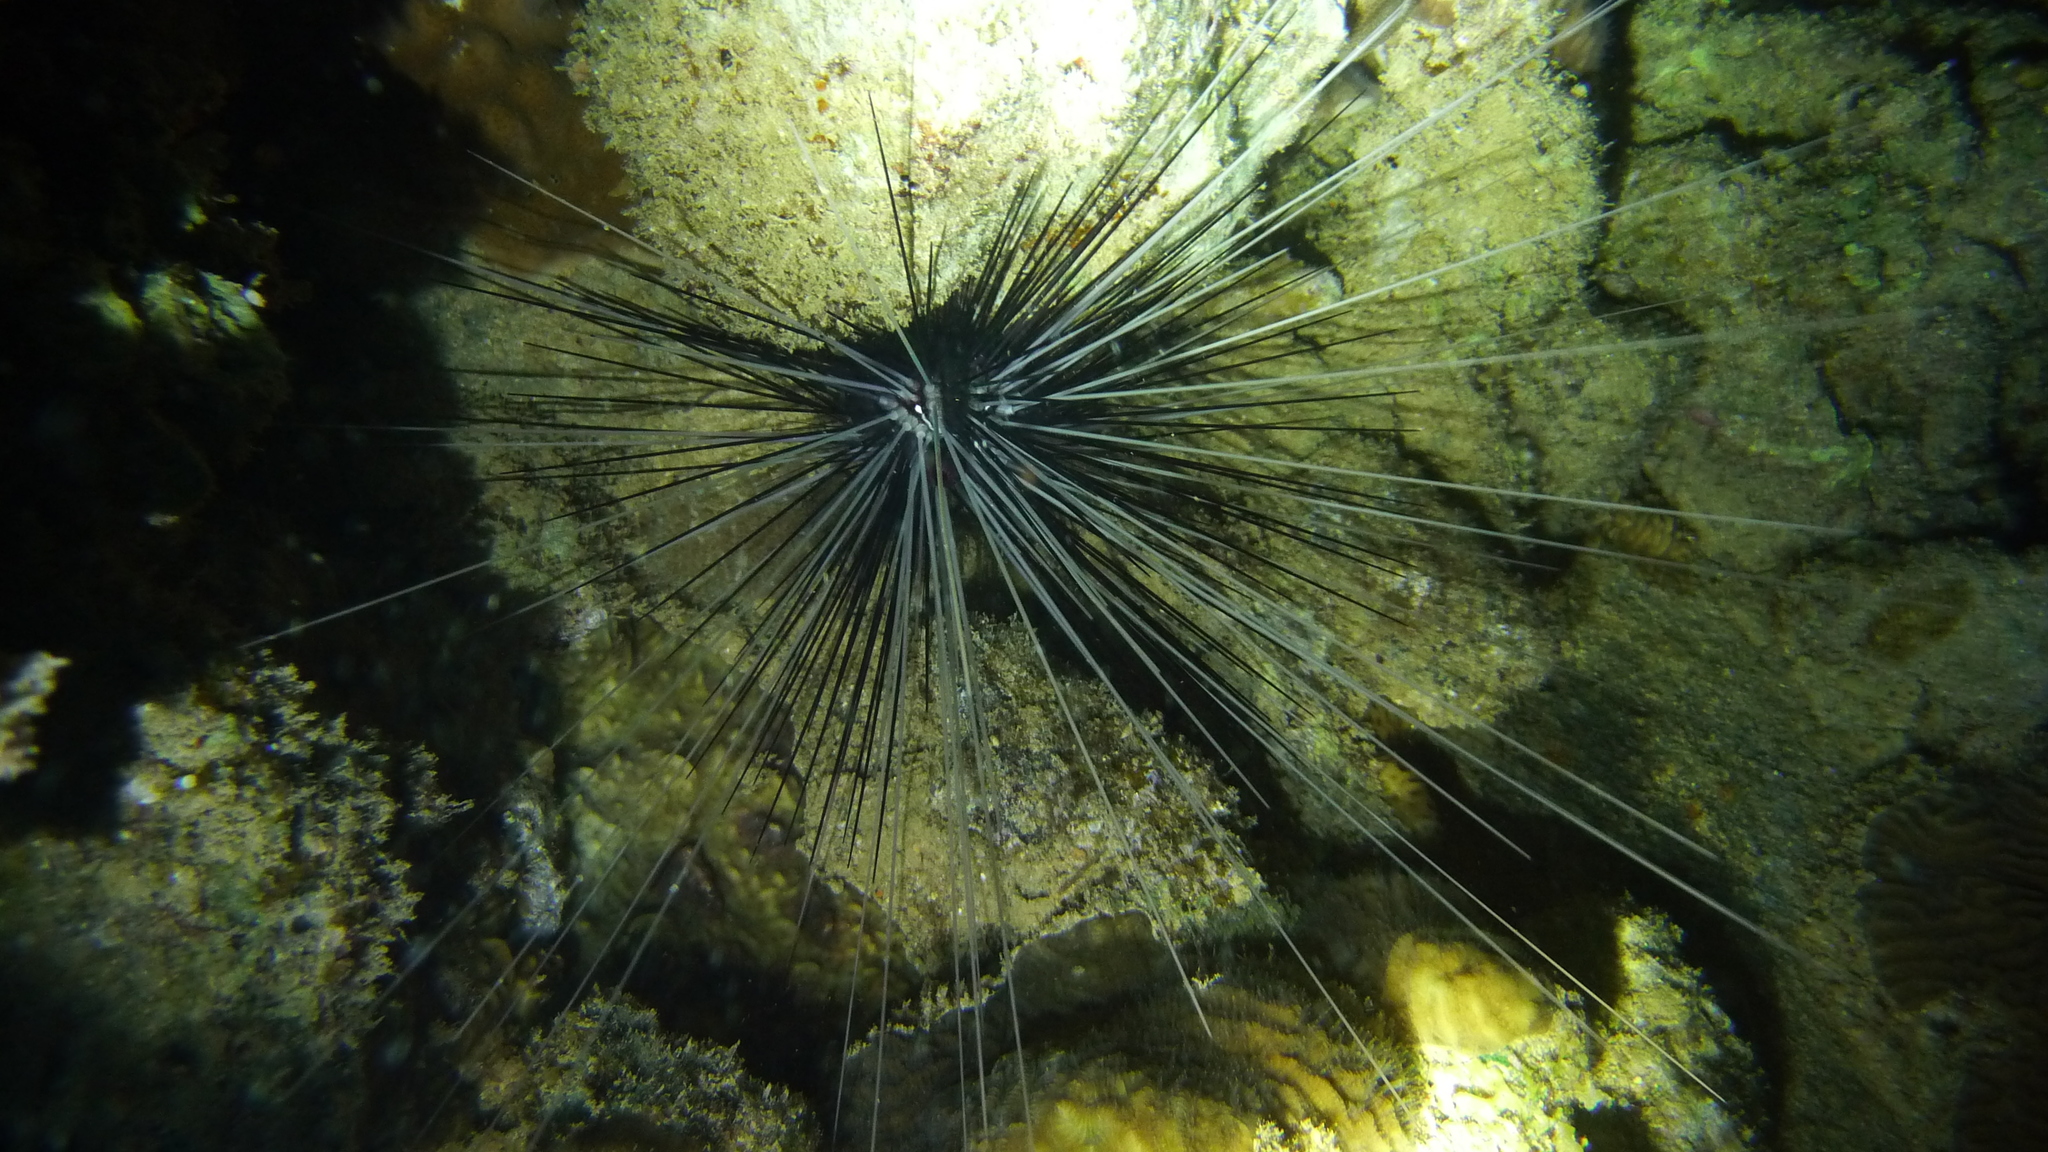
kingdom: Animalia
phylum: Echinodermata
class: Echinoidea
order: Diadematoida
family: Diadematidae
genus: Diadema
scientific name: Diadema setosum
